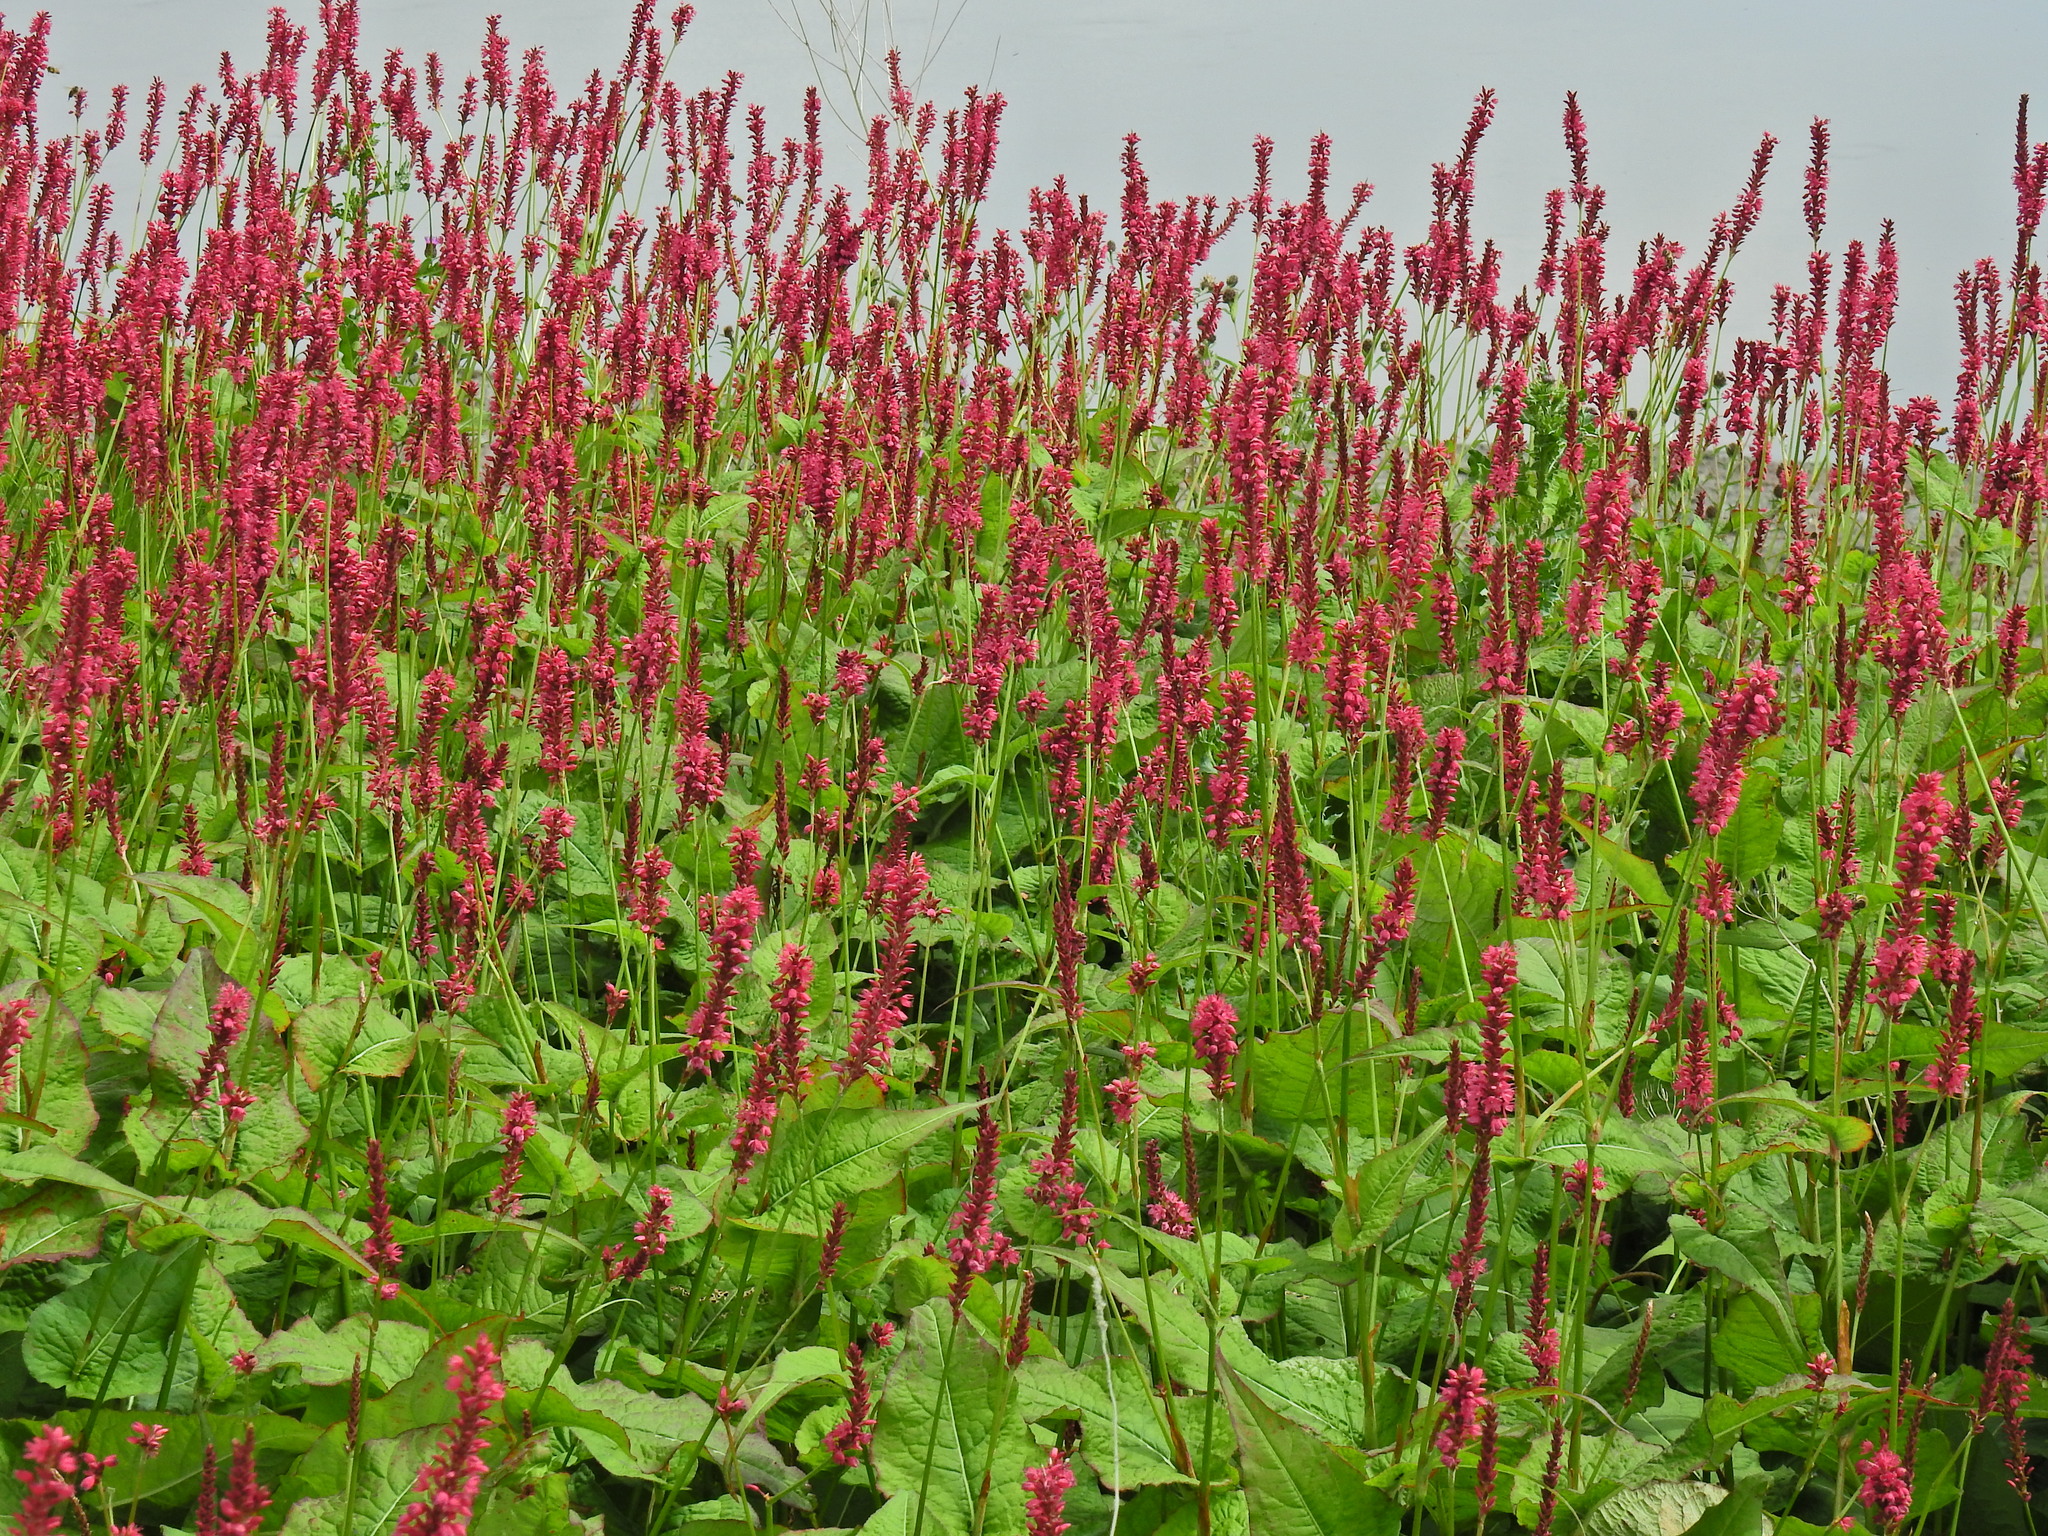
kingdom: Plantae
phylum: Tracheophyta
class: Magnoliopsida
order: Caryophyllales
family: Polygonaceae
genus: Bistorta
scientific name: Bistorta amplexicaulis
